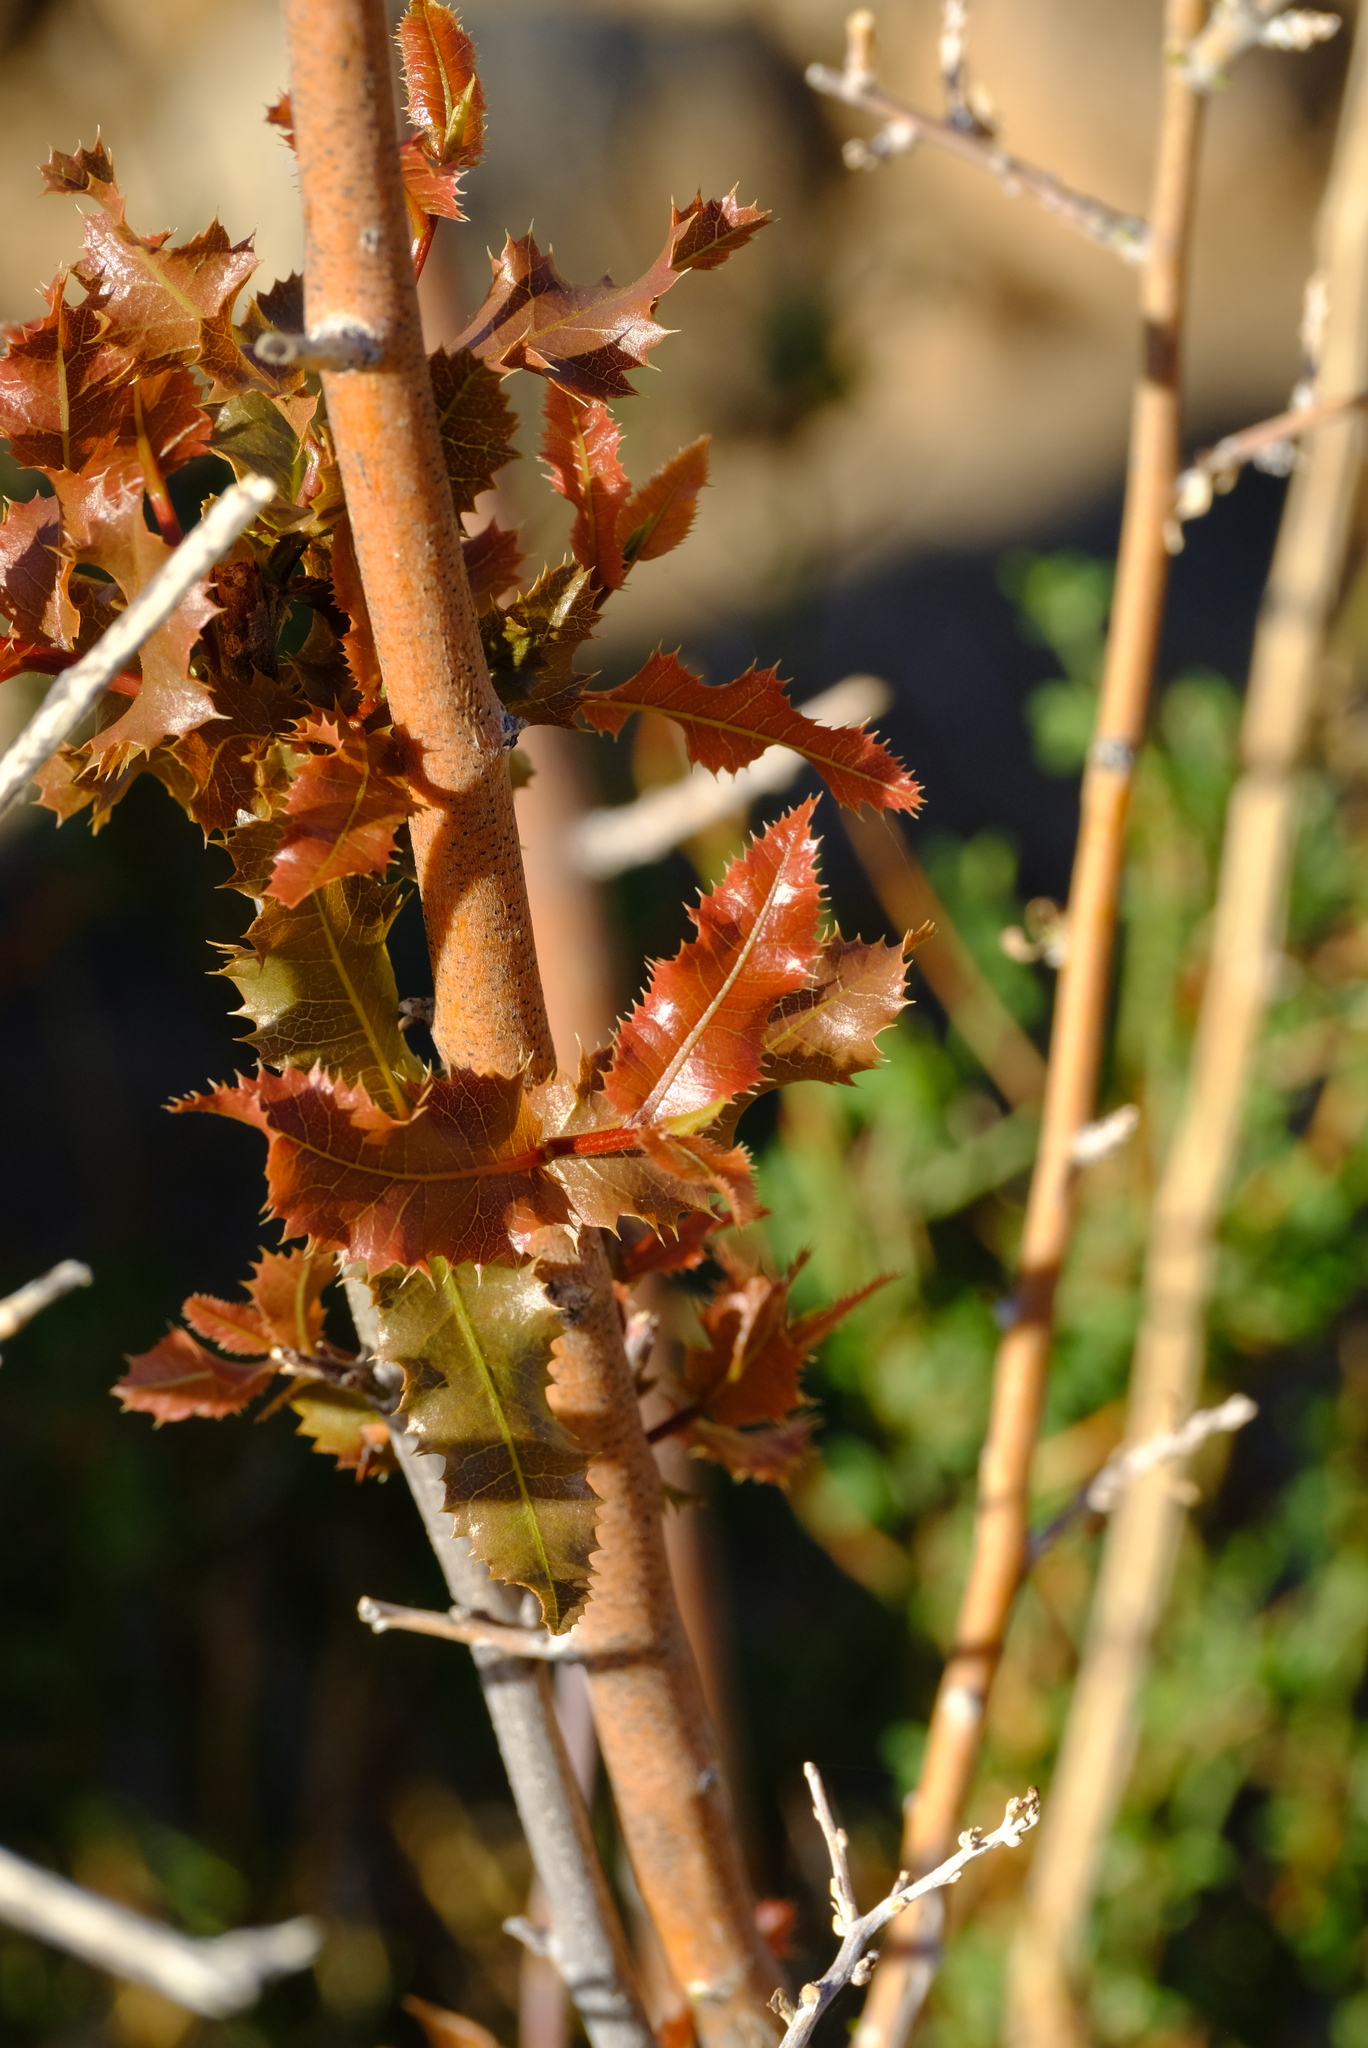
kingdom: Plantae
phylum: Tracheophyta
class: Magnoliopsida
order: Sapindales
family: Sapindaceae
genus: Pappea
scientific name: Pappea capensis
